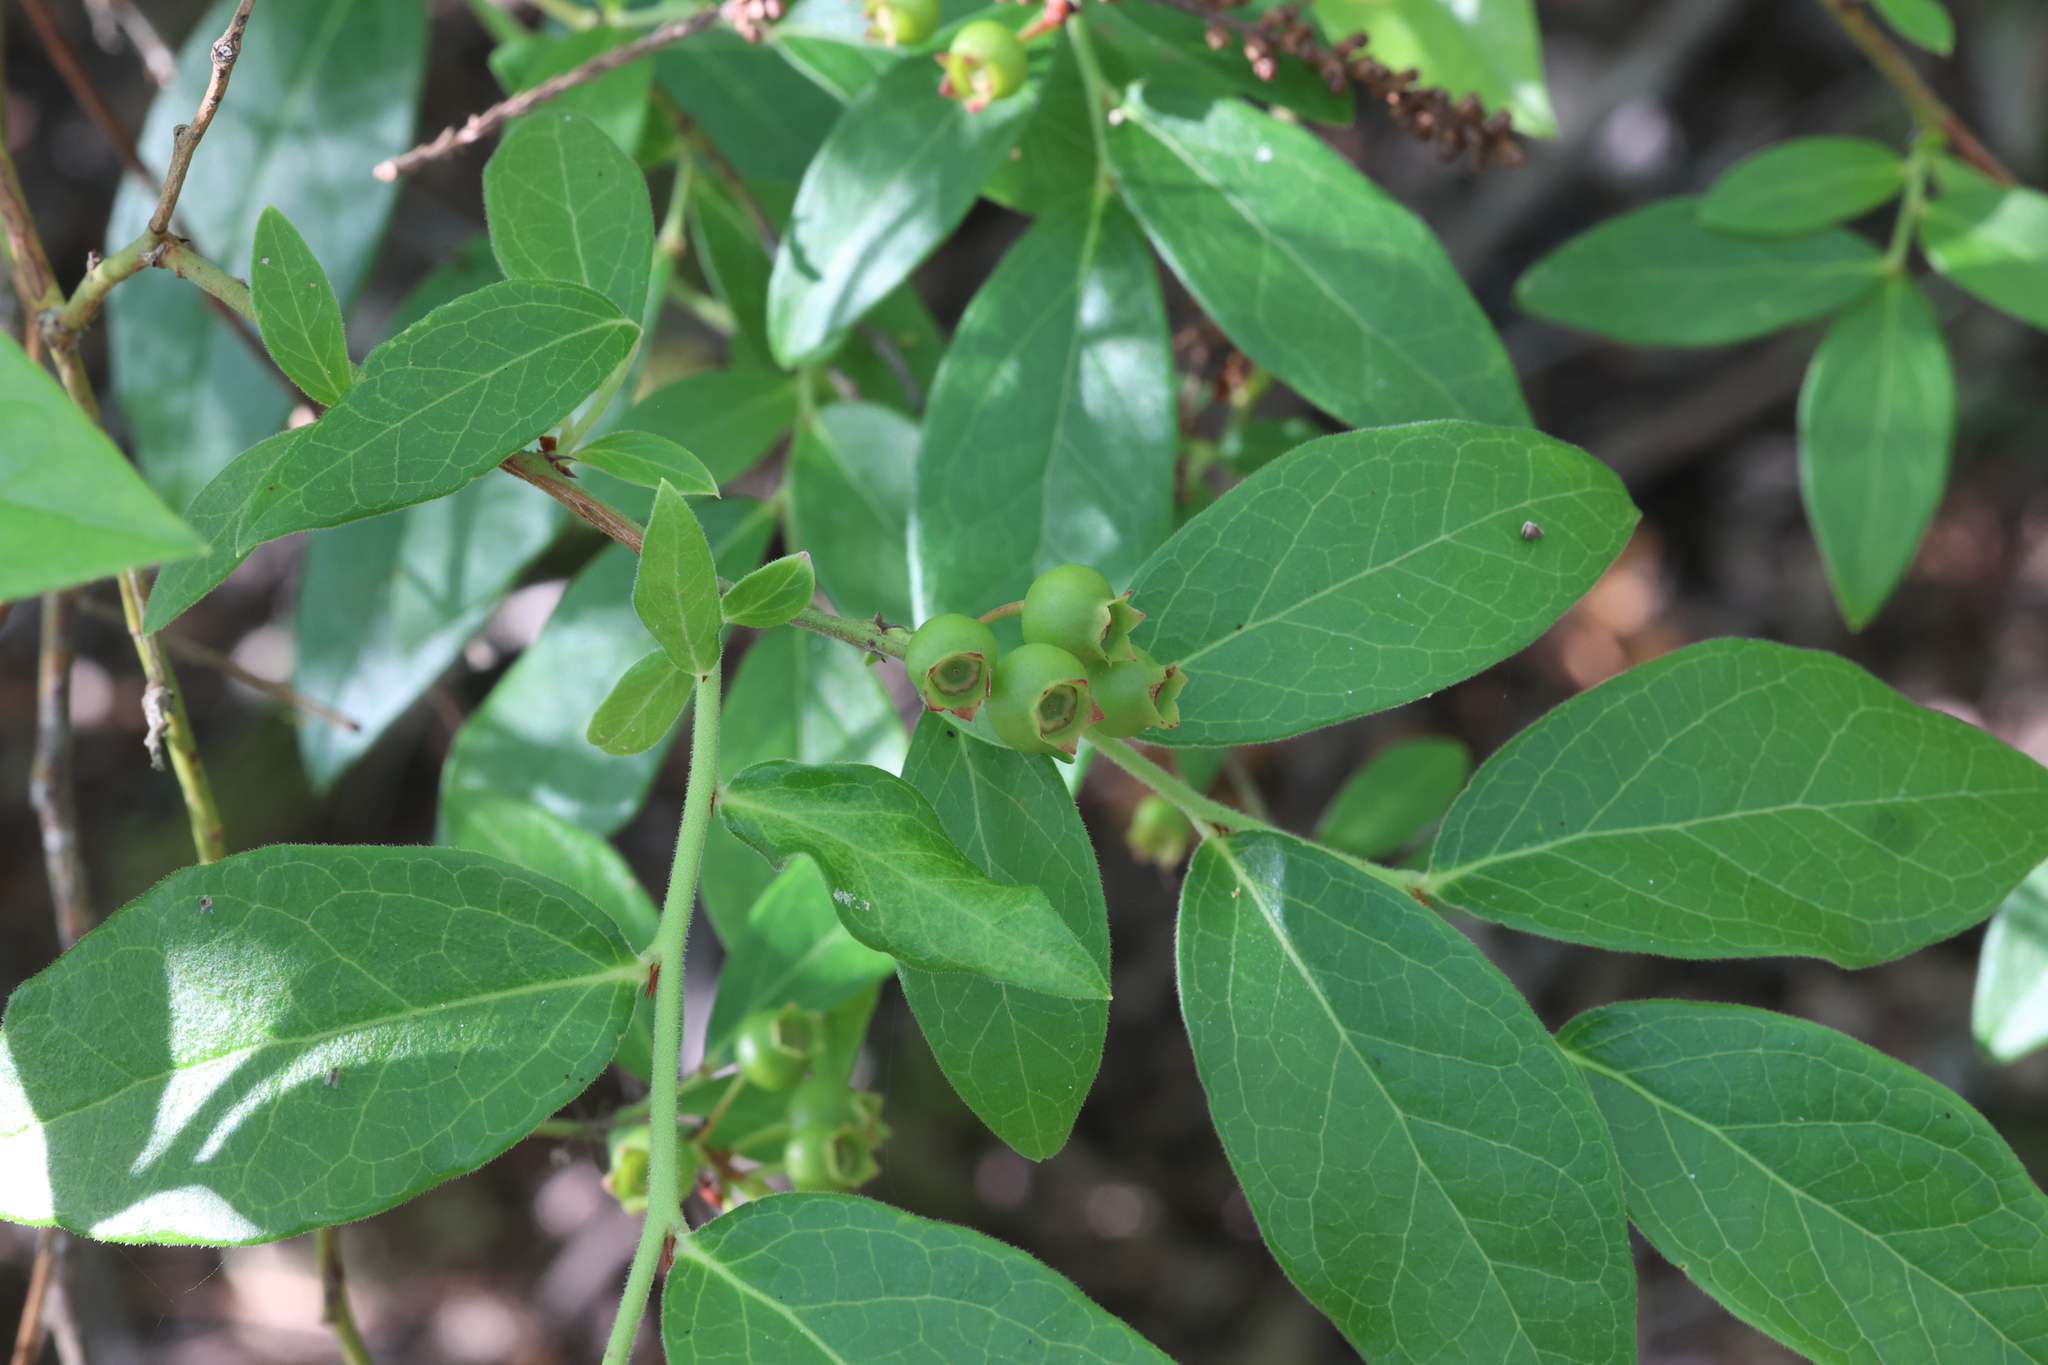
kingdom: Plantae
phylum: Tracheophyta
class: Magnoliopsida
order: Ericales
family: Ericaceae
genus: Vaccinium
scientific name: Vaccinium corymbosum
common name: Blueberry
